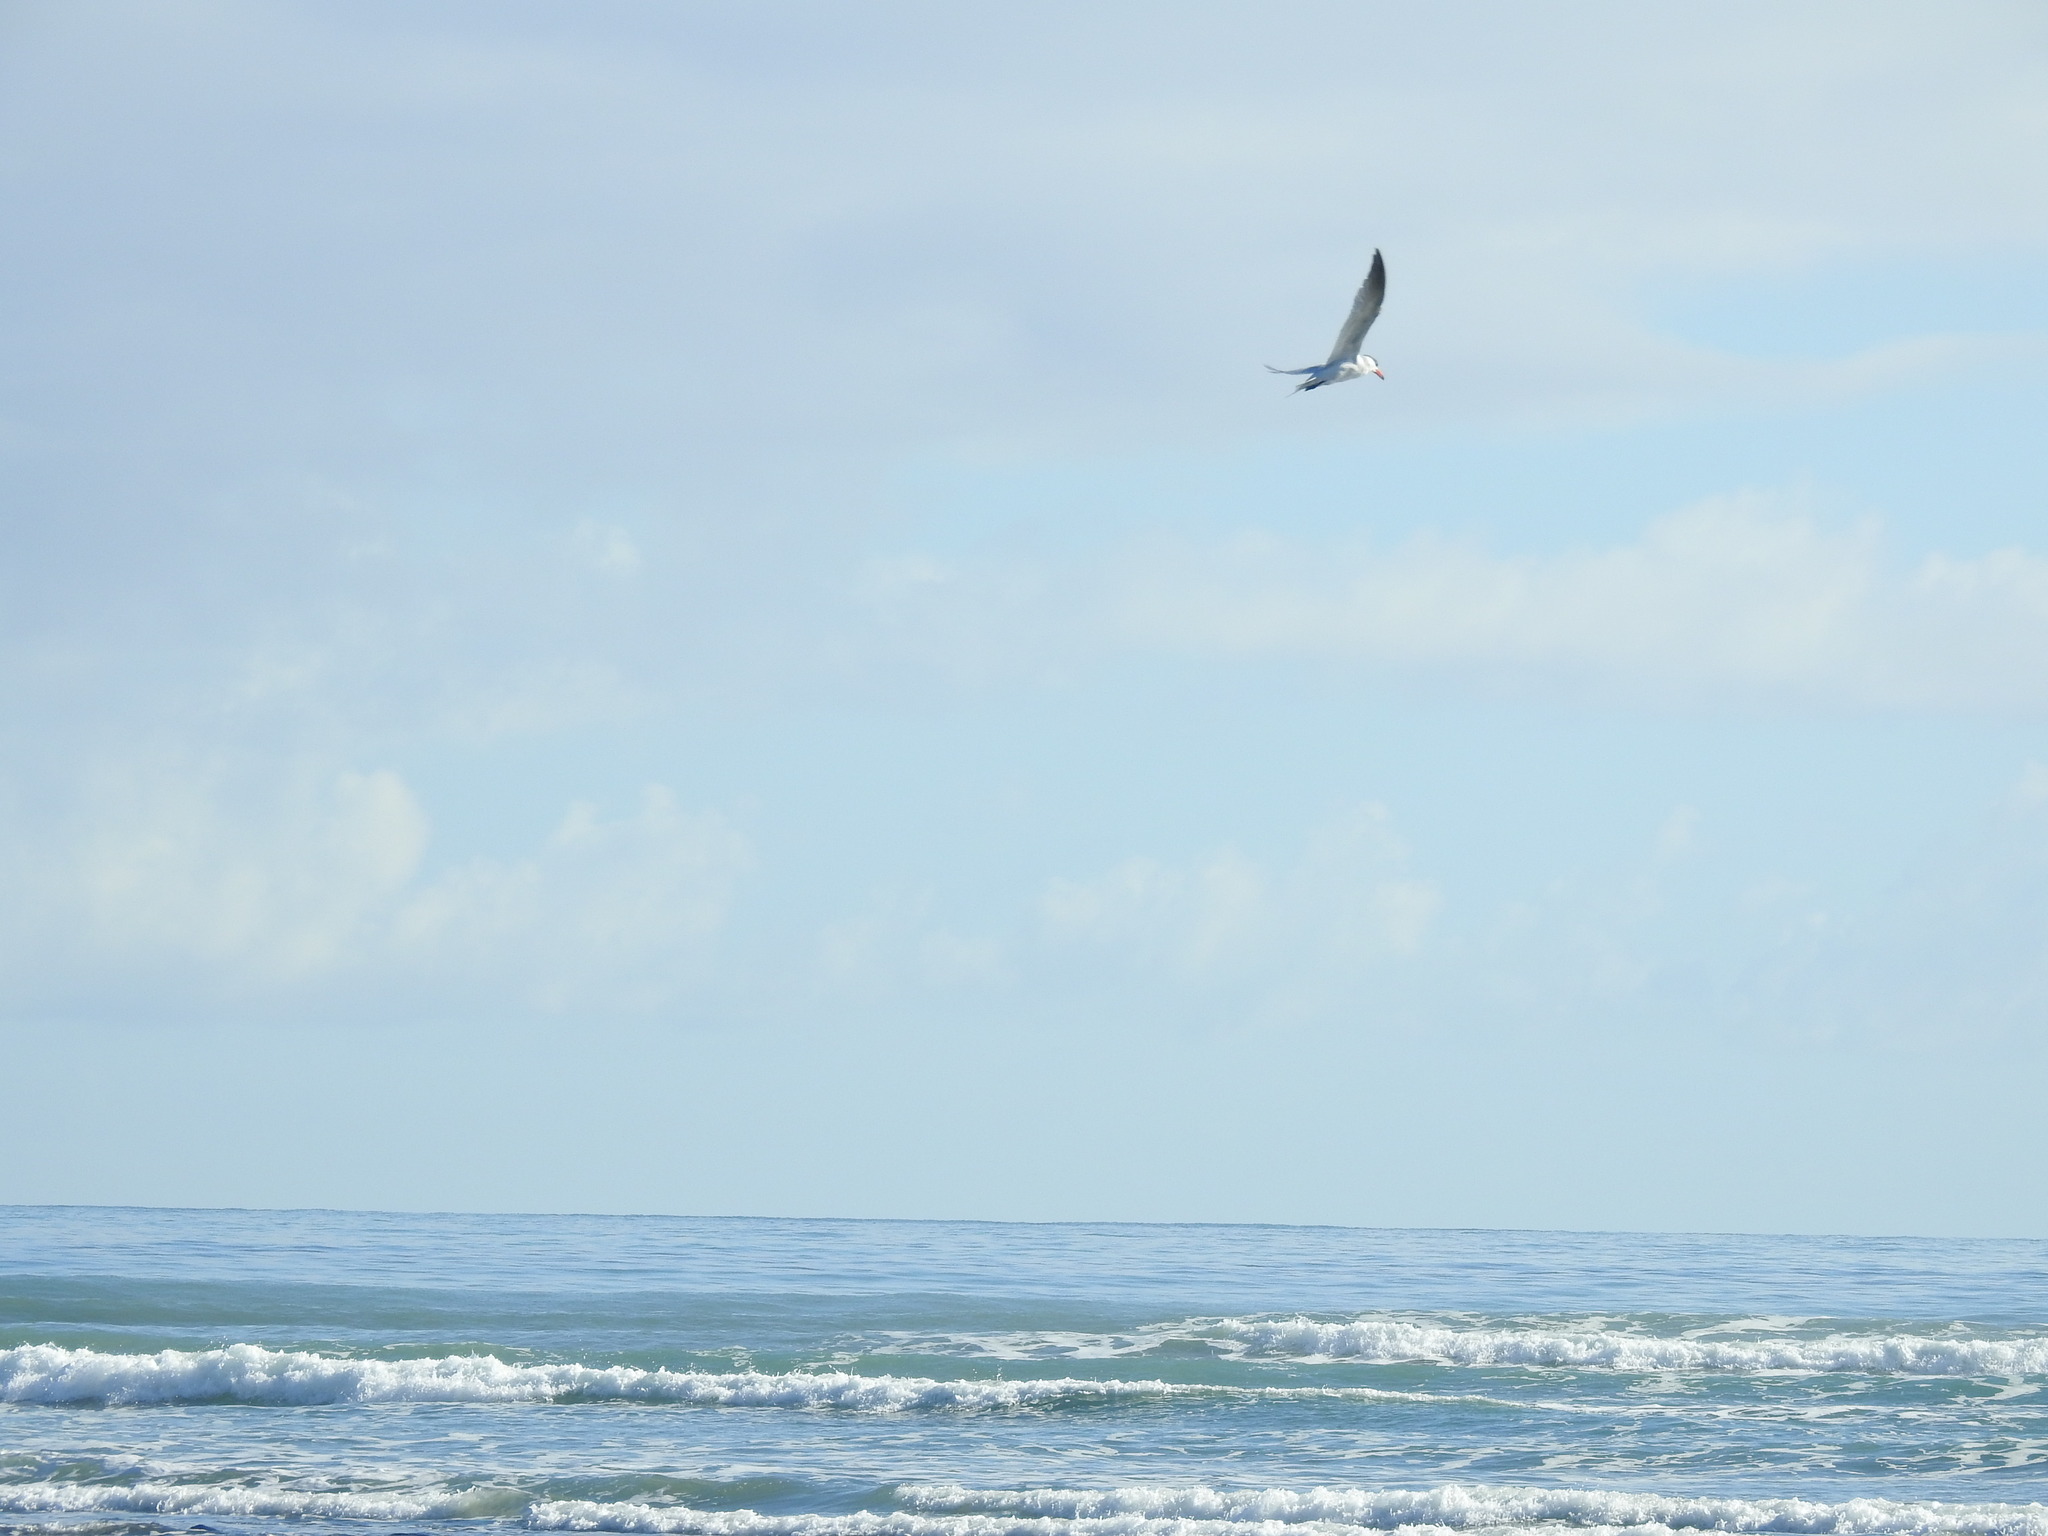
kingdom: Animalia
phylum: Chordata
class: Aves
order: Charadriiformes
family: Laridae
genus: Hydroprogne
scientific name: Hydroprogne caspia
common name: Caspian tern
